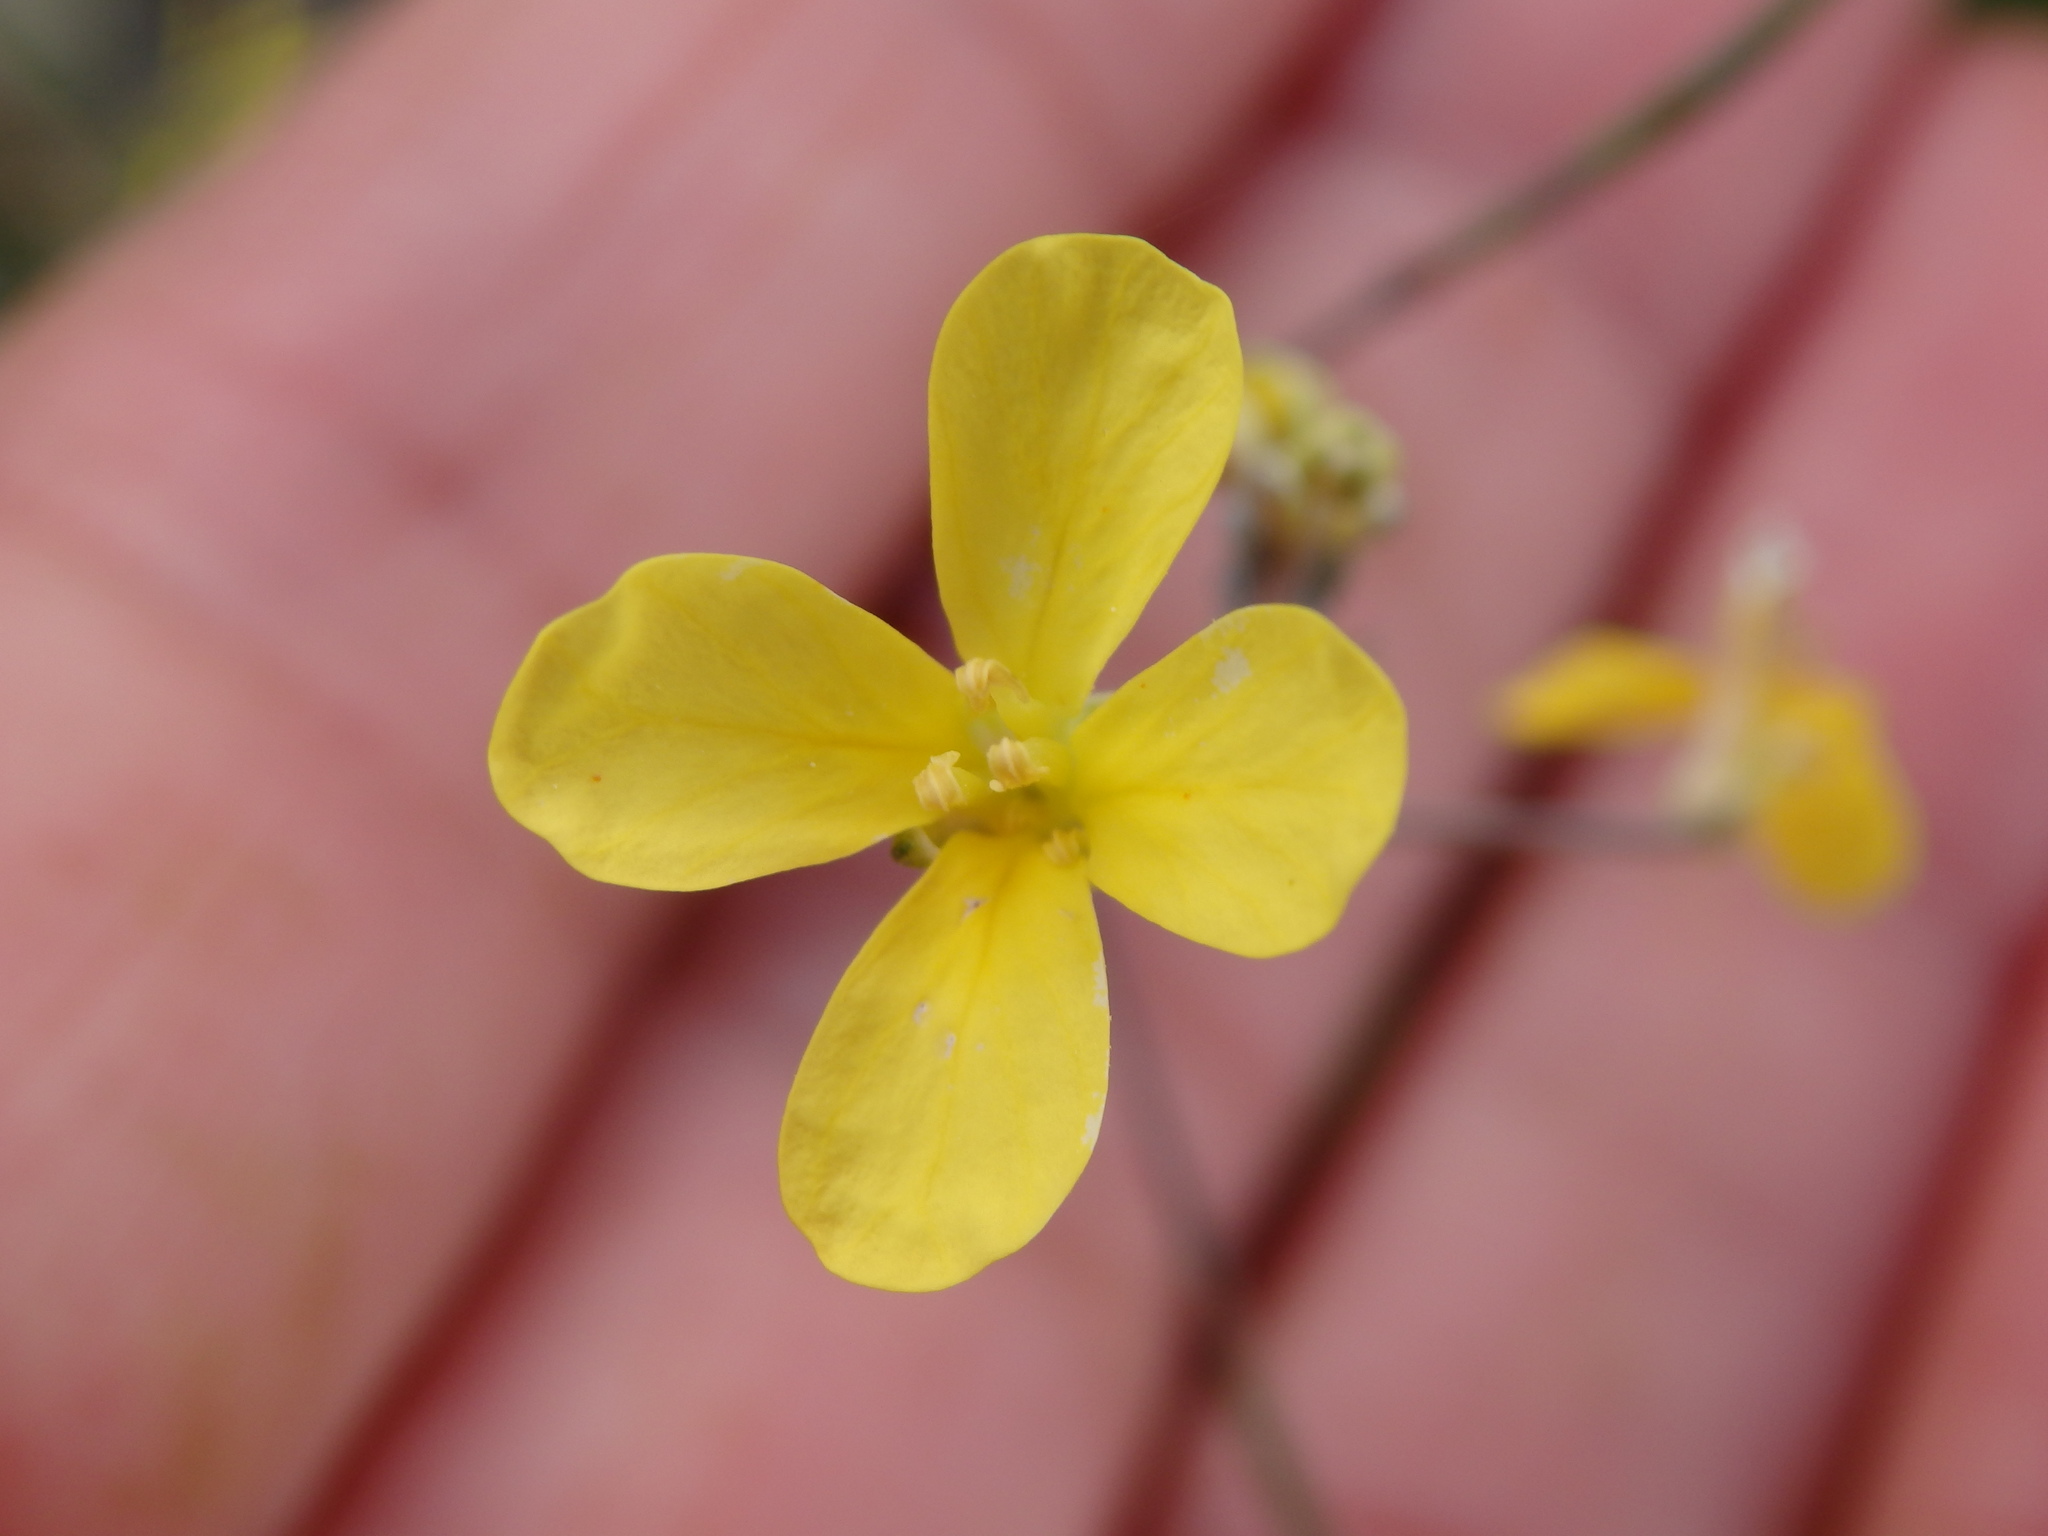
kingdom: Plantae
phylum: Tracheophyta
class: Magnoliopsida
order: Brassicales
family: Brassicaceae
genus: Diplotaxis
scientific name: Diplotaxis muralis
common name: Annual wall-rocket
